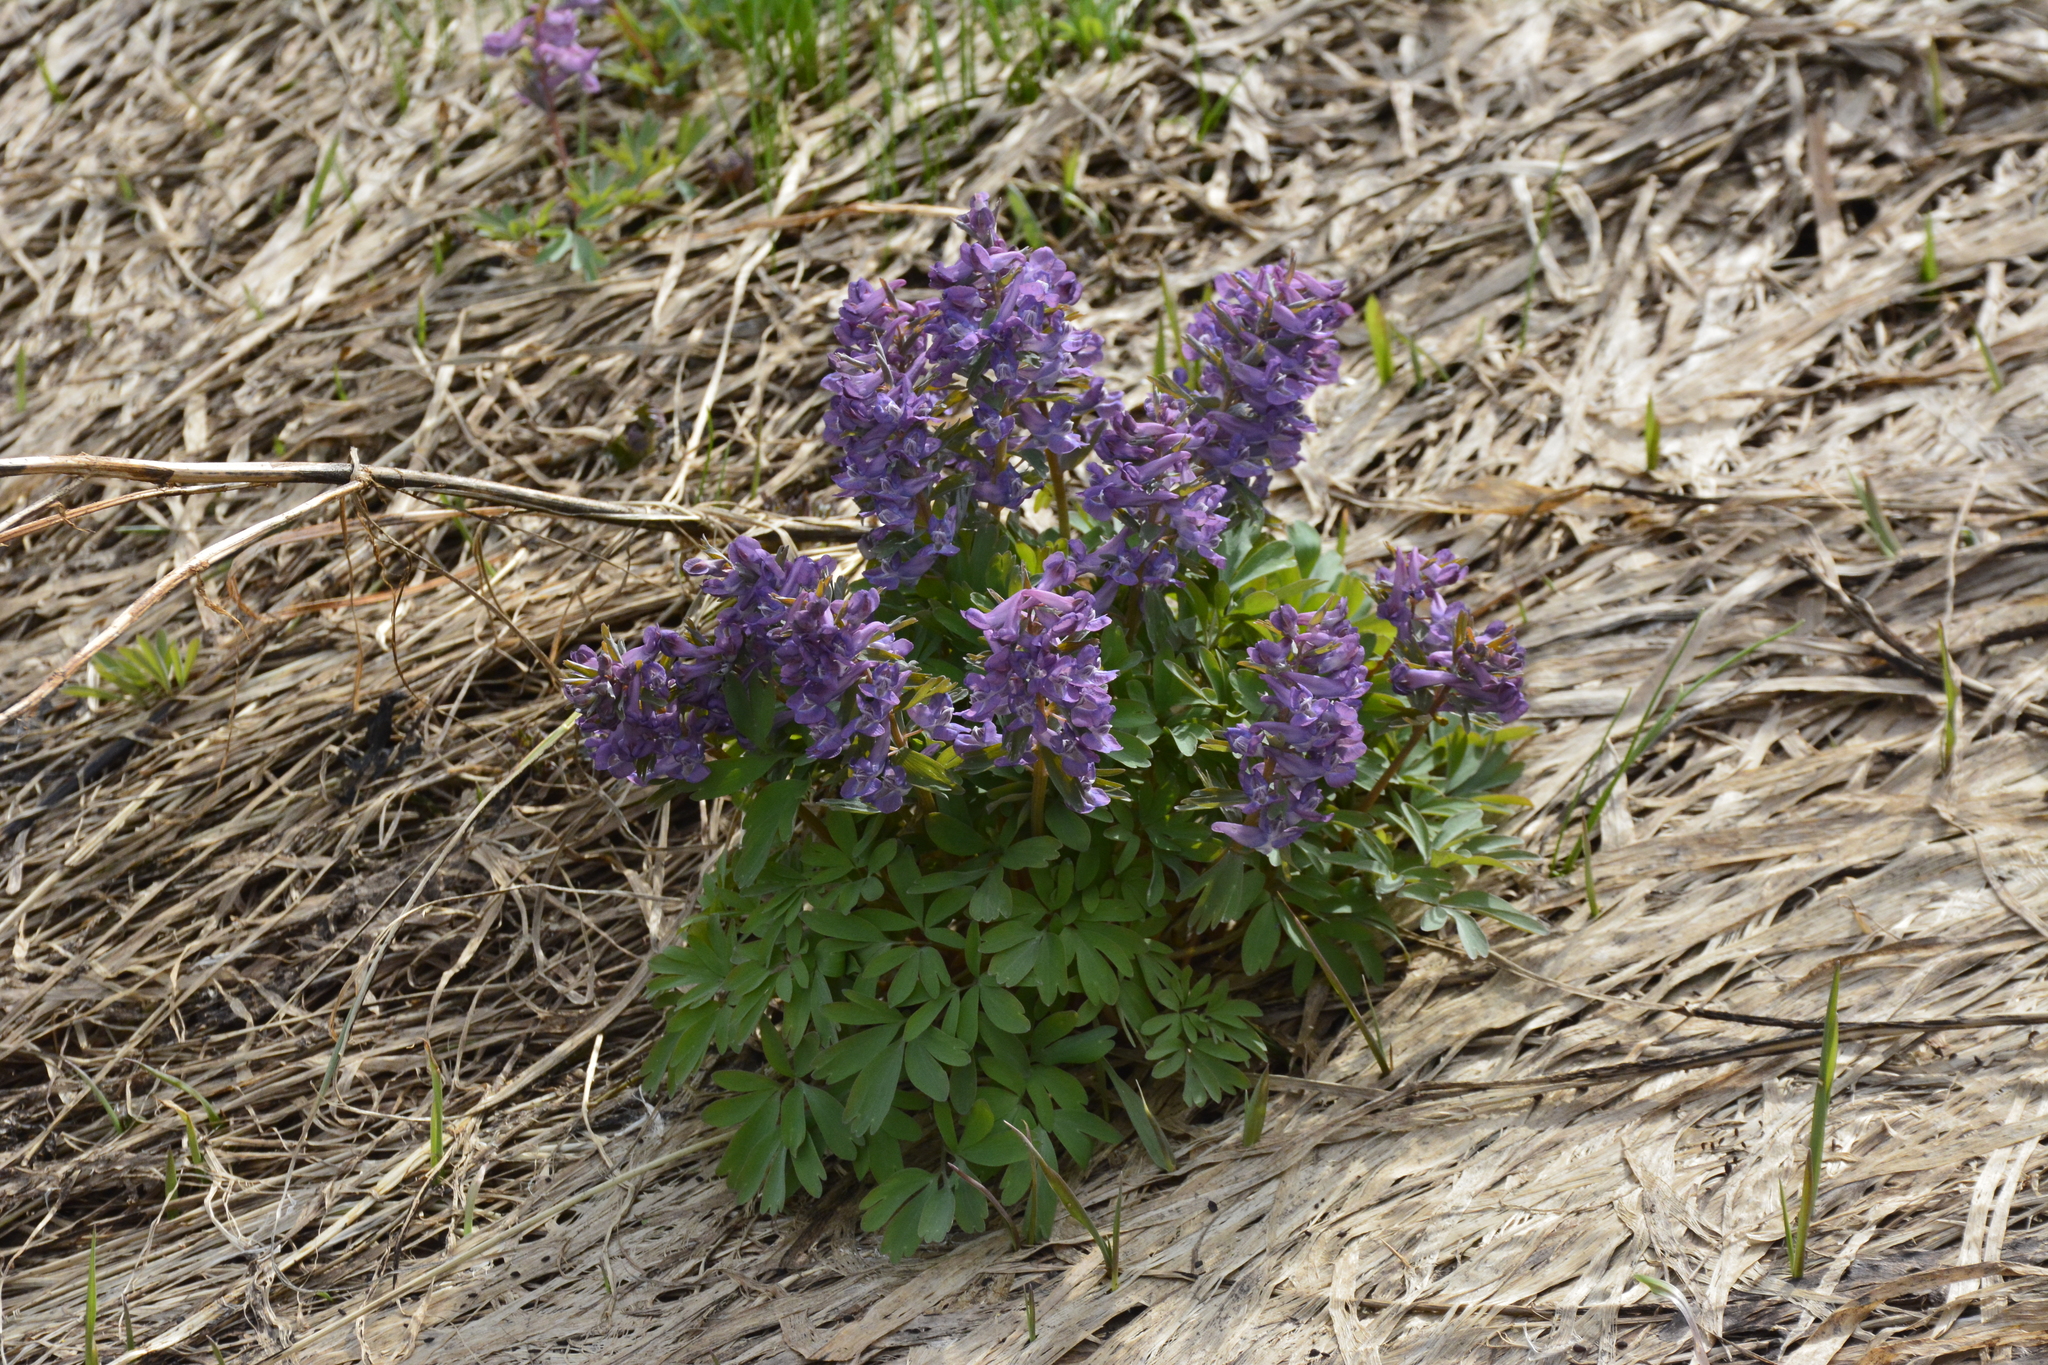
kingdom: Plantae
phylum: Tracheophyta
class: Magnoliopsida
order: Ranunculales
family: Papaveraceae
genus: Corydalis
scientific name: Corydalis solida
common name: Bird-in-a-bush
